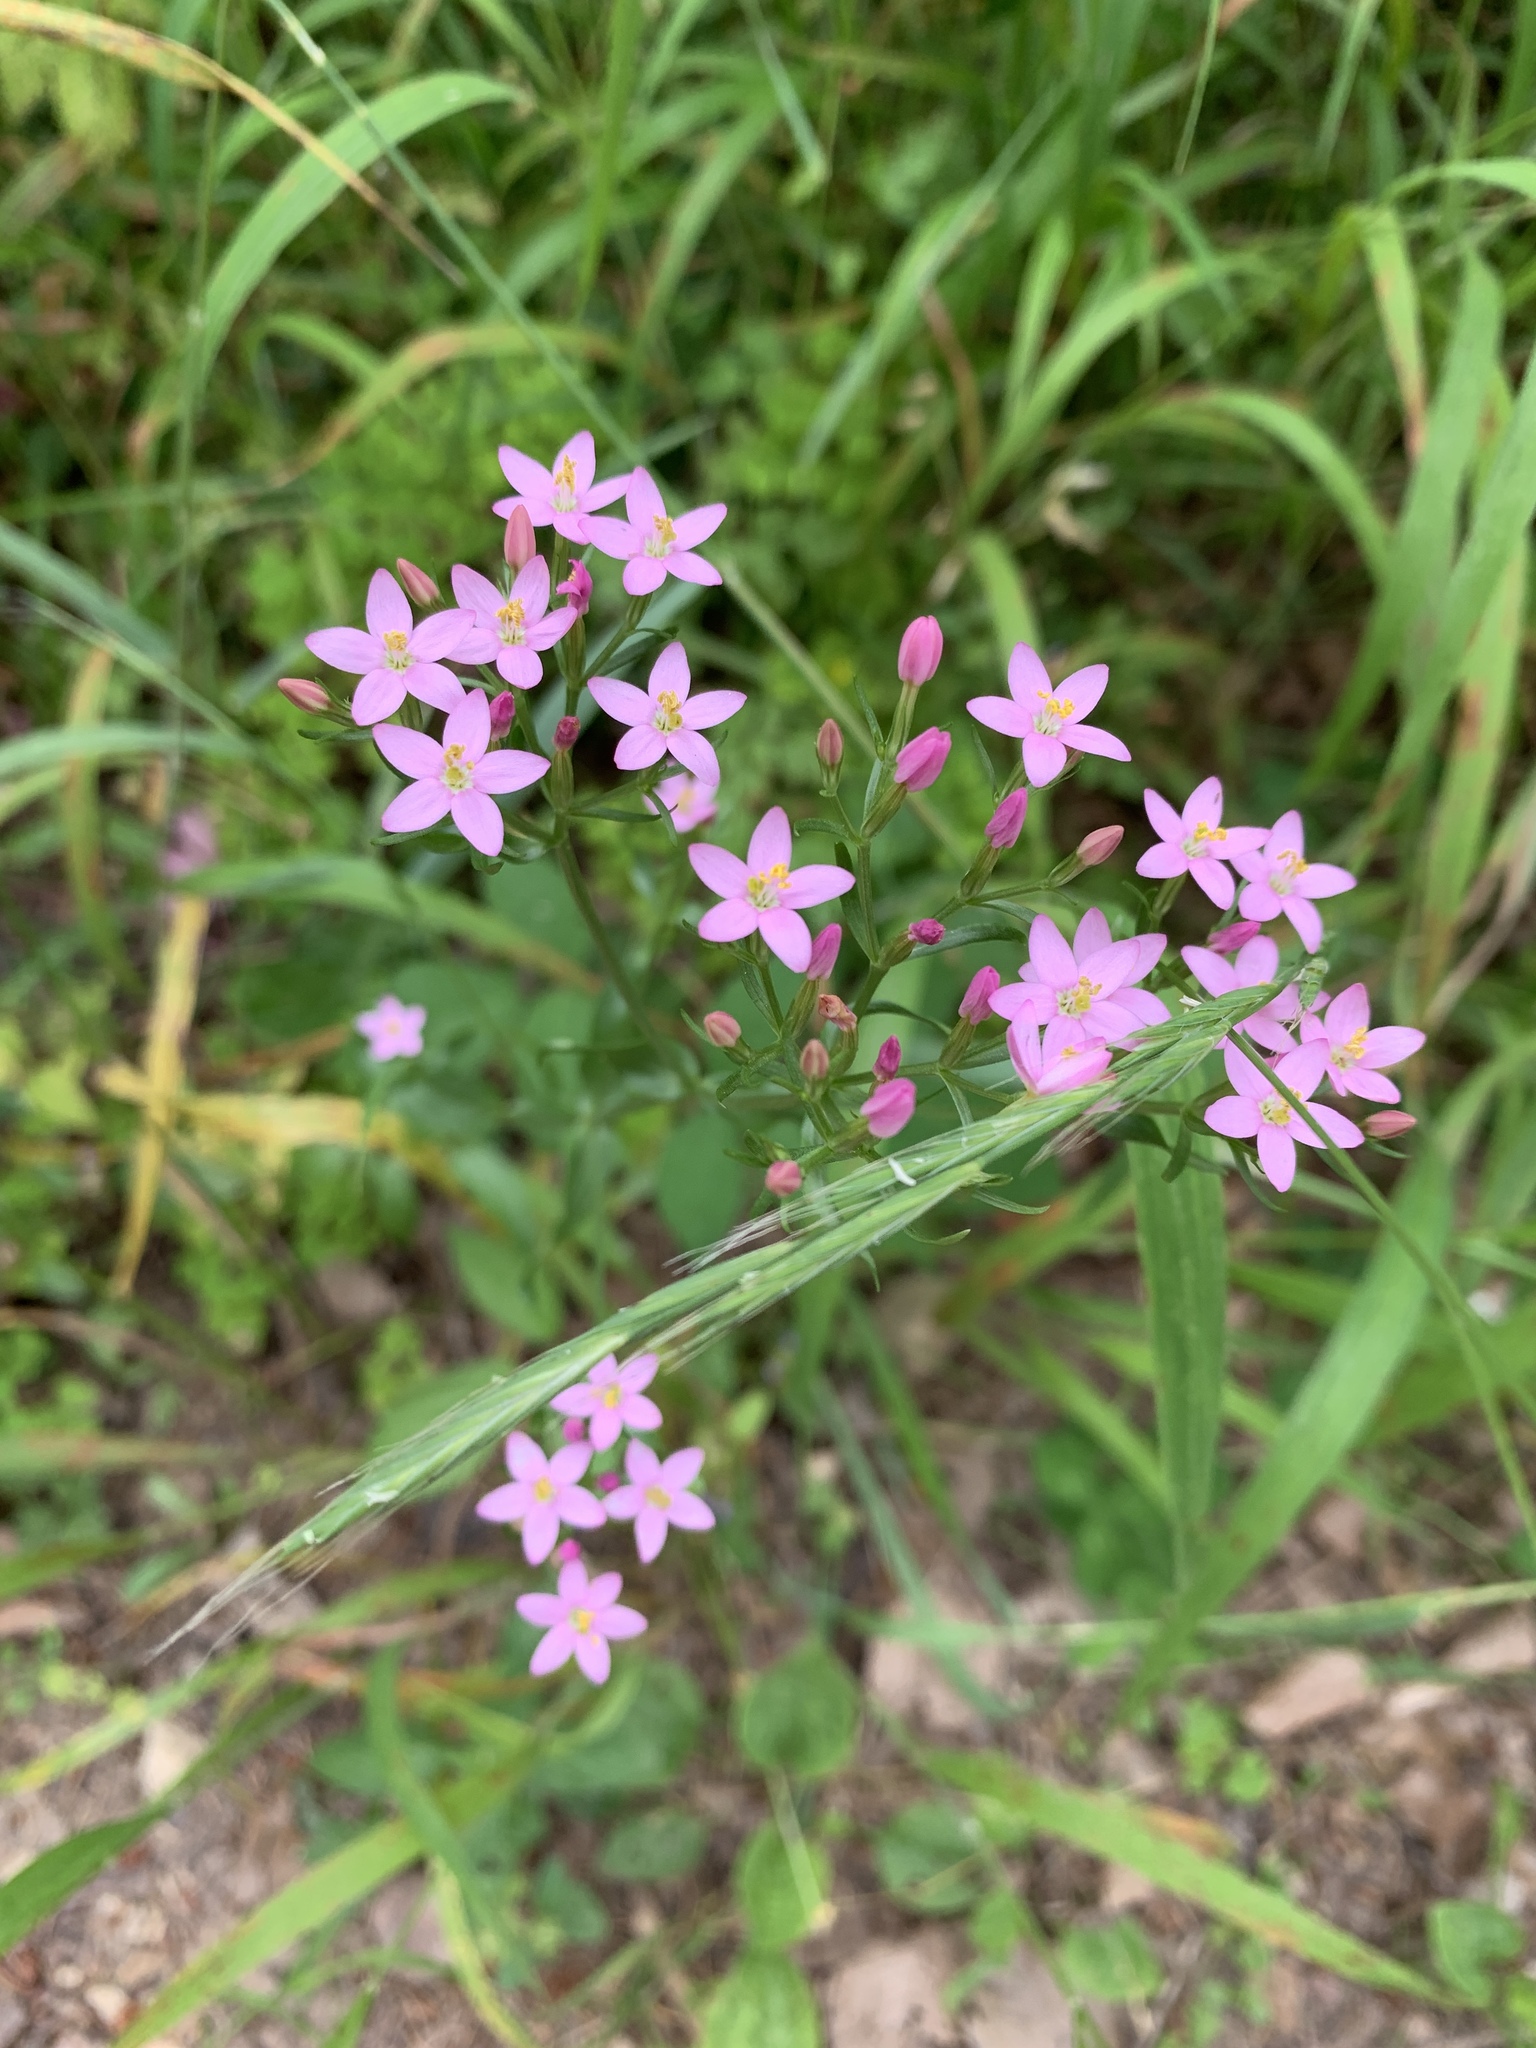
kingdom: Plantae
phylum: Tracheophyta
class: Magnoliopsida
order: Gentianales
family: Gentianaceae
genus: Centaurium
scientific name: Centaurium erythraea
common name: Common centaury
